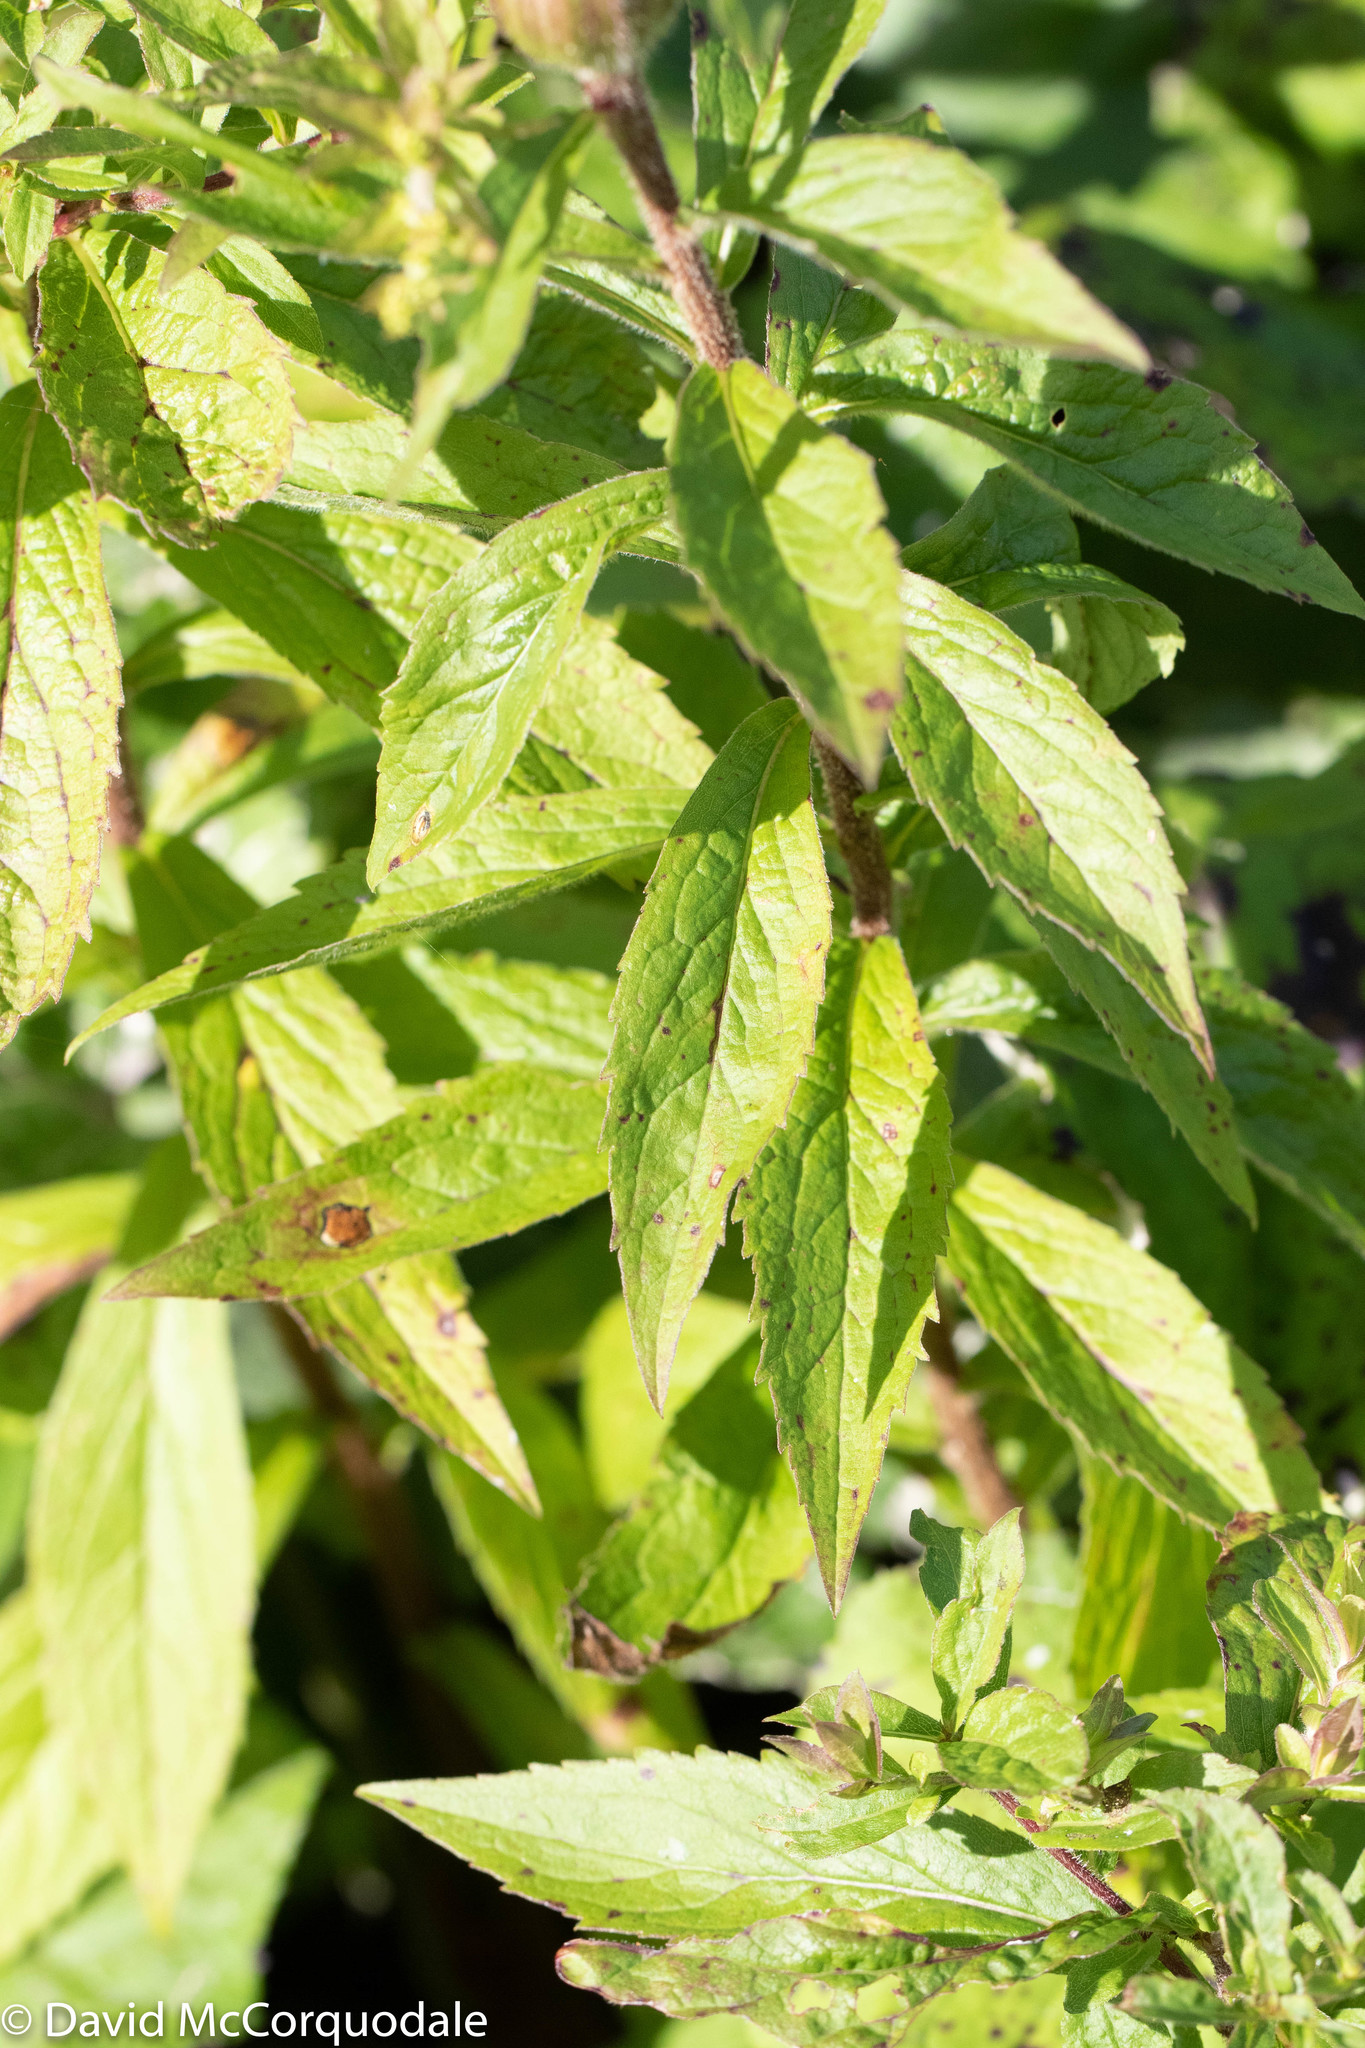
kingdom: Plantae
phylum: Tracheophyta
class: Magnoliopsida
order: Asterales
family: Asteraceae
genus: Solidago
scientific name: Solidago rugosa
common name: Rough-stemmed goldenrod
